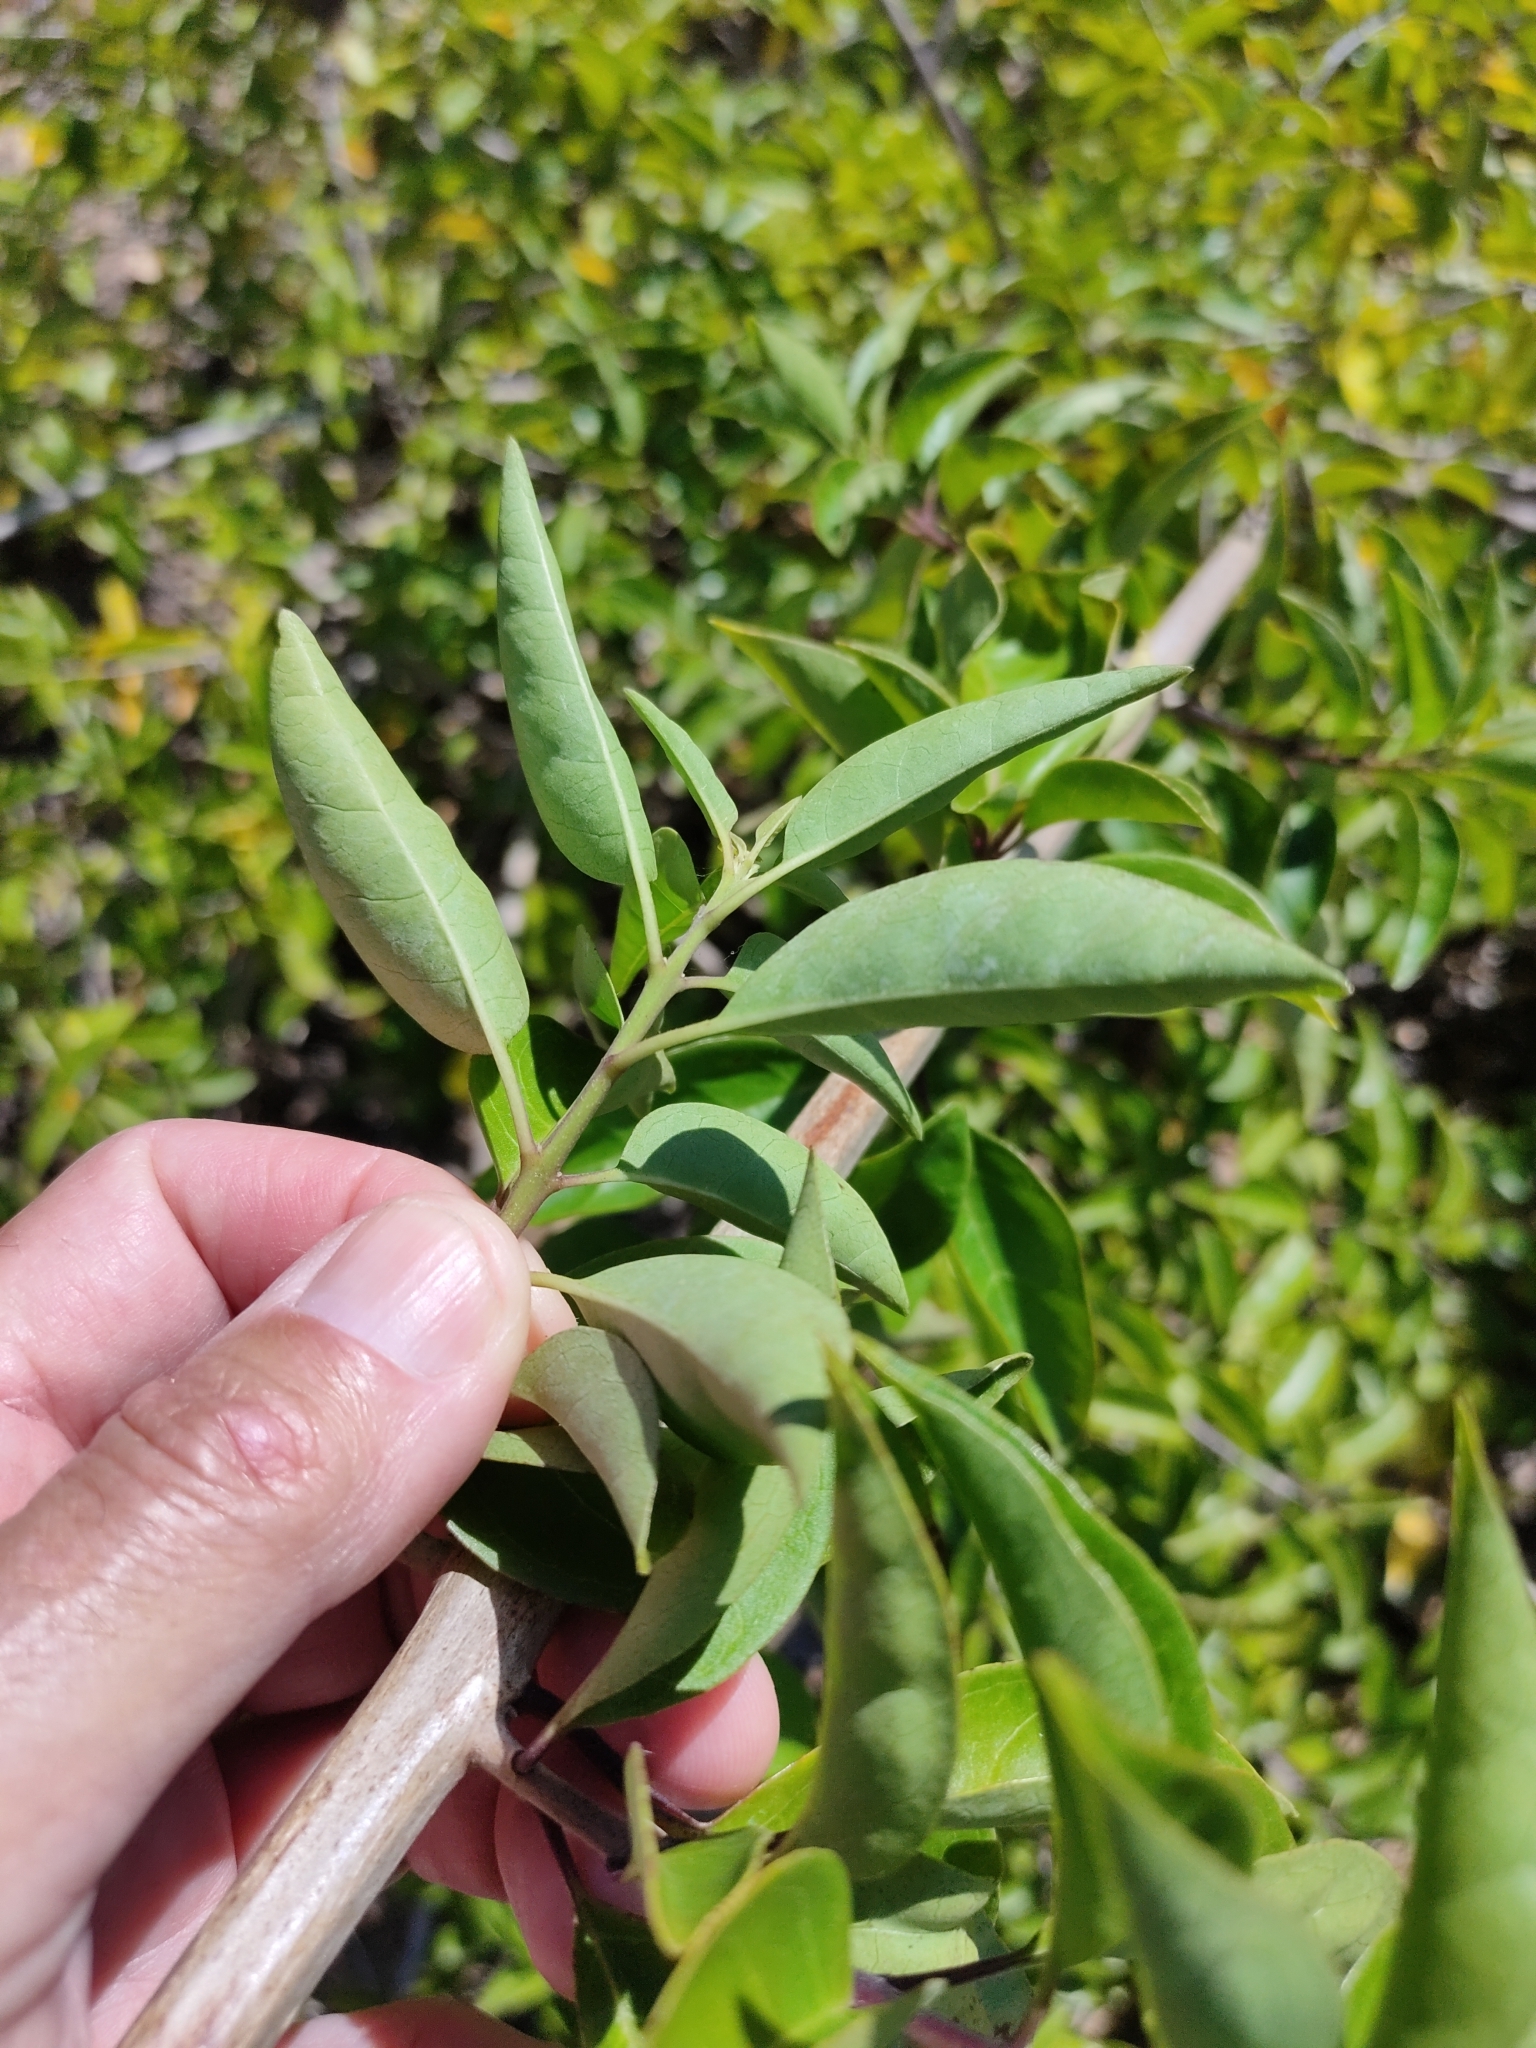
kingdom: Plantae
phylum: Tracheophyta
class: Magnoliopsida
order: Lamiales
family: Lamiaceae
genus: Volkameria
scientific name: Volkameria inermis
